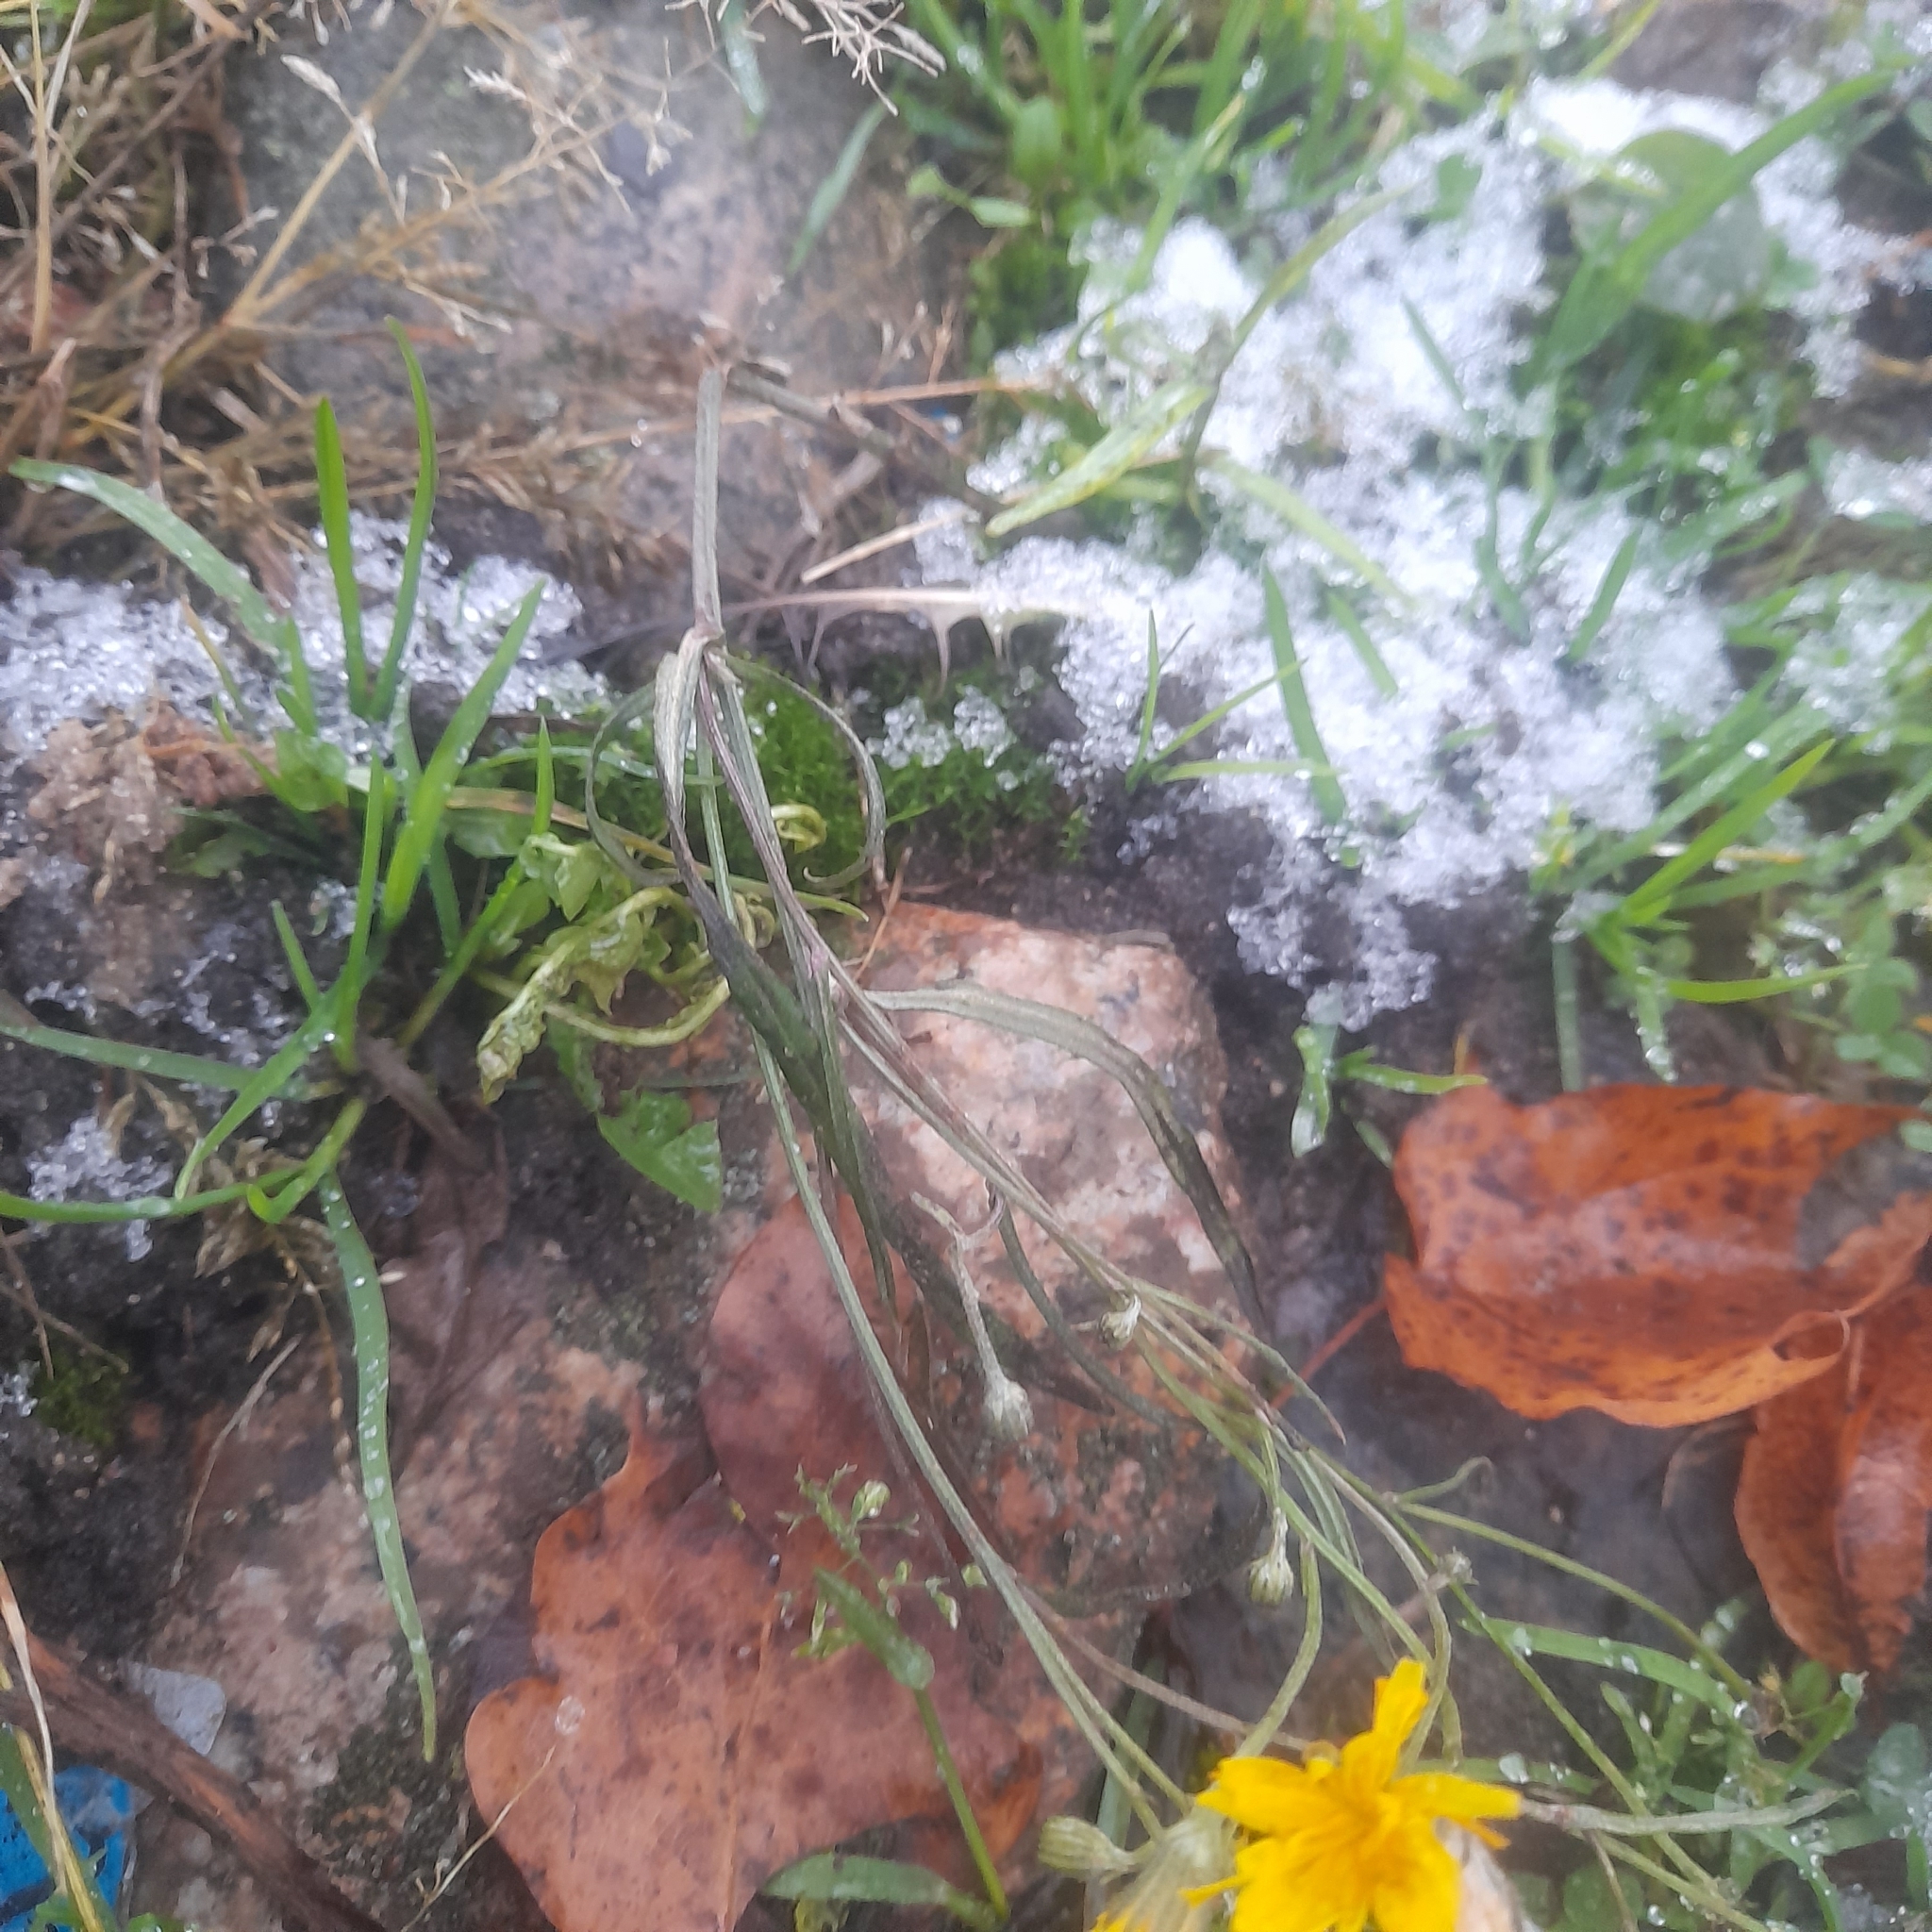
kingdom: Plantae
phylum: Tracheophyta
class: Magnoliopsida
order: Asterales
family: Asteraceae
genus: Crepis
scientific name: Crepis tectorum
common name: Narrow-leaved hawk's-beard
